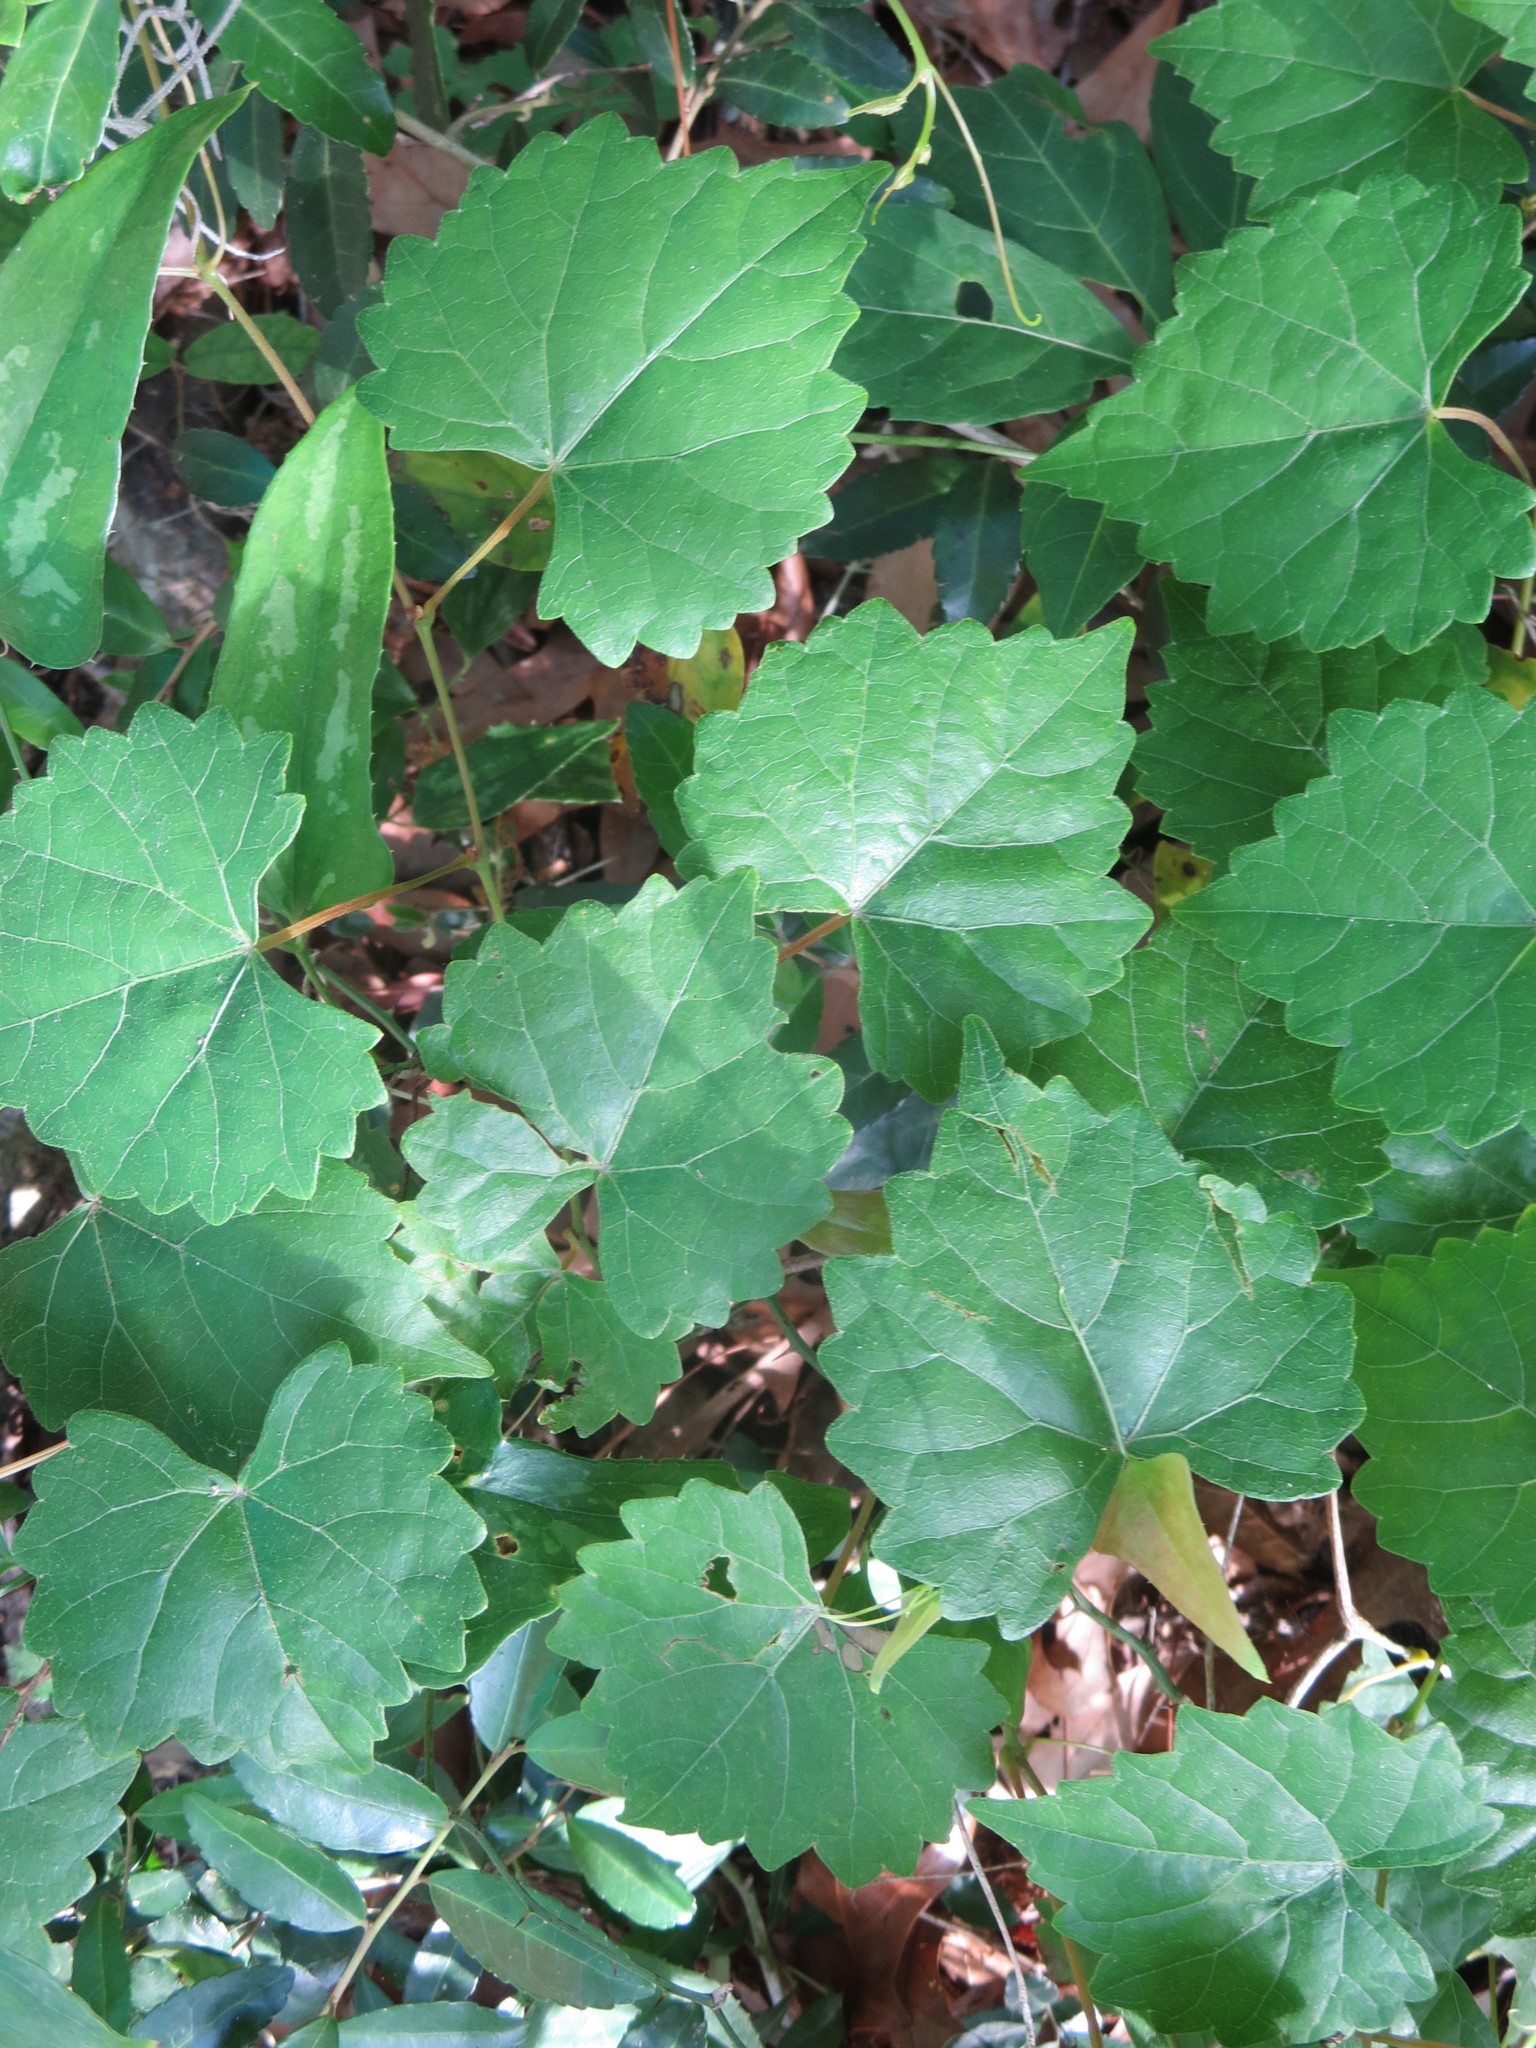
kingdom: Plantae
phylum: Tracheophyta
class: Magnoliopsida
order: Vitales
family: Vitaceae
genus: Vitis
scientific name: Vitis rotundifolia
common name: Muscadine grape
